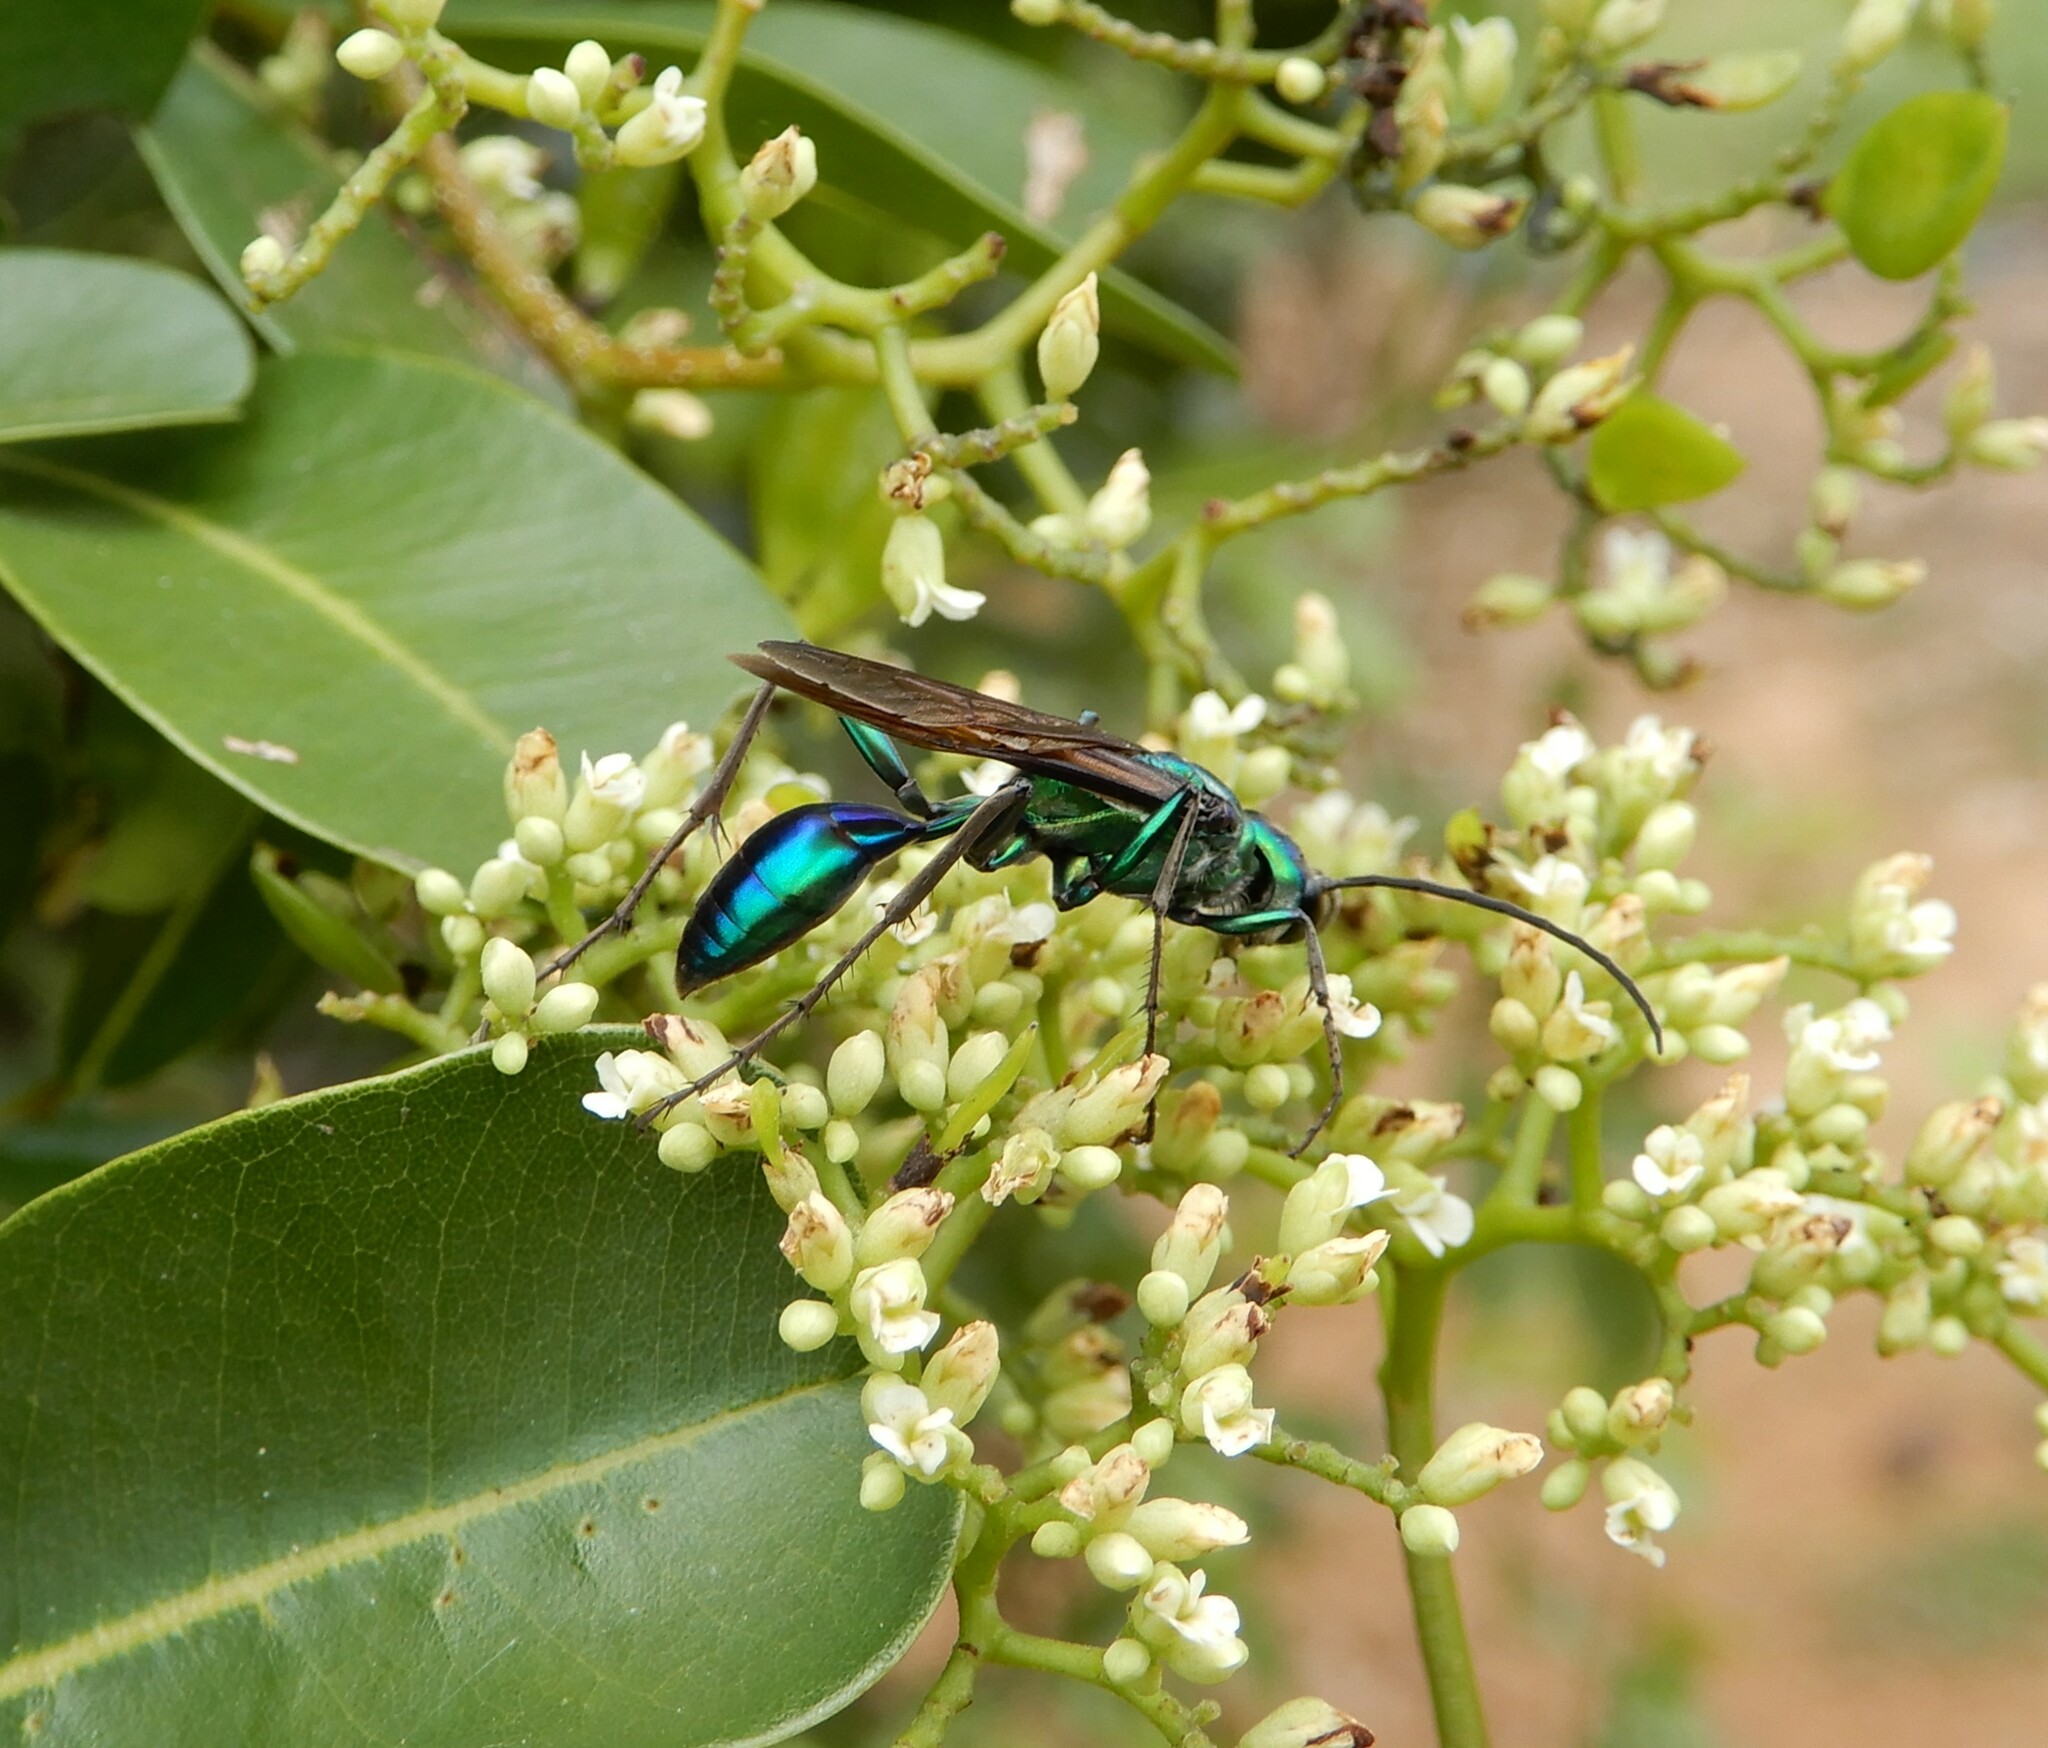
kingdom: Animalia
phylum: Arthropoda
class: Insecta
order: Hymenoptera
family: Sphecidae
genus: Chlorion
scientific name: Chlorion lobatum
